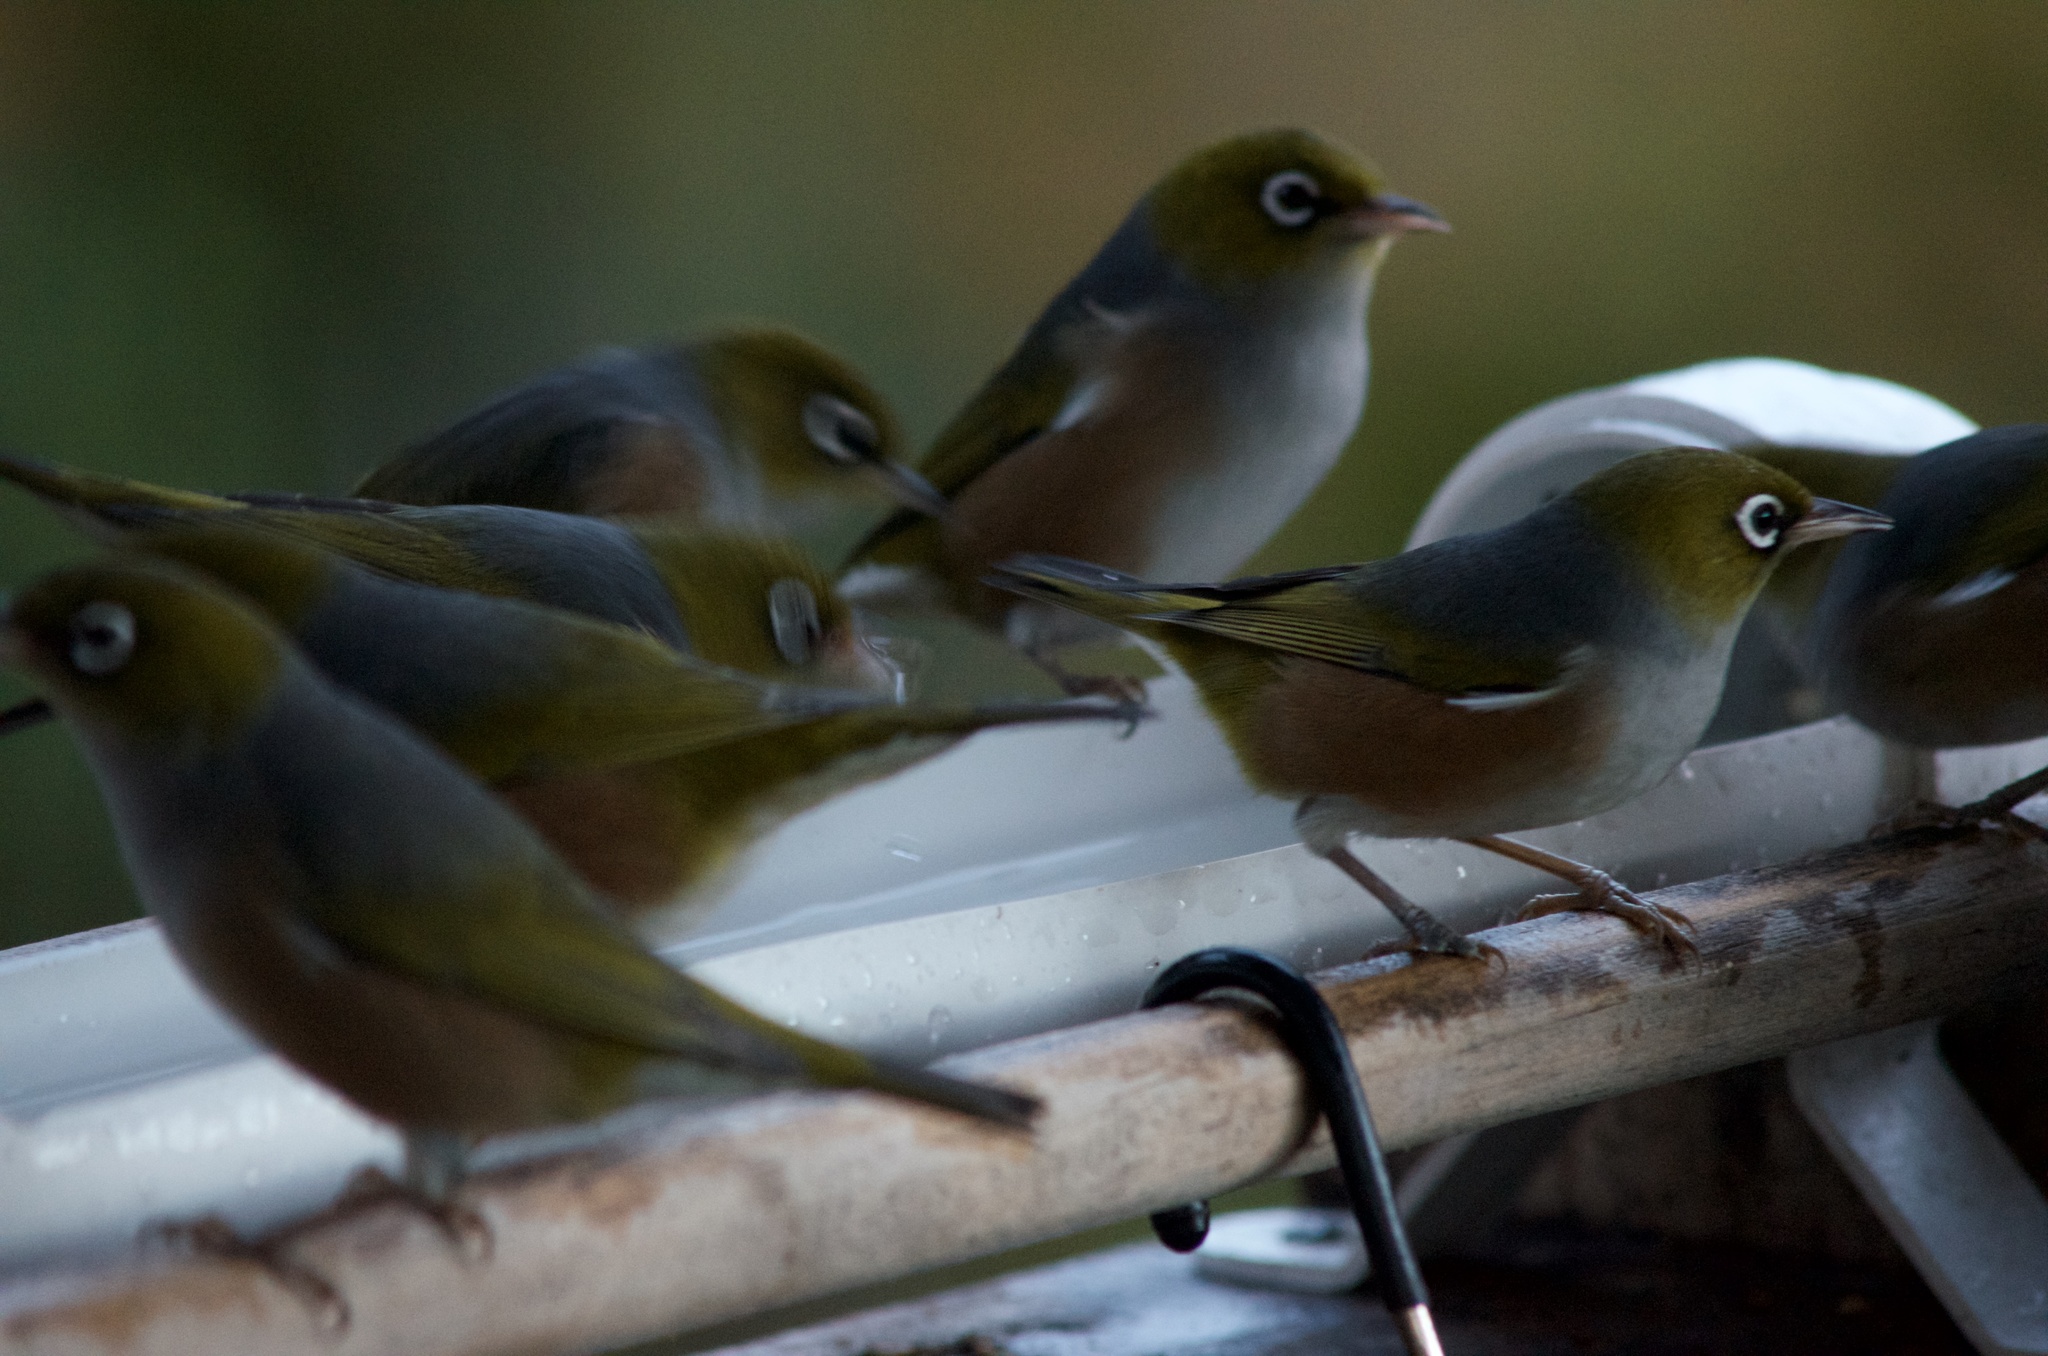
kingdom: Animalia
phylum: Chordata
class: Aves
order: Passeriformes
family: Zosteropidae
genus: Zosterops
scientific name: Zosterops lateralis
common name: Silvereye
